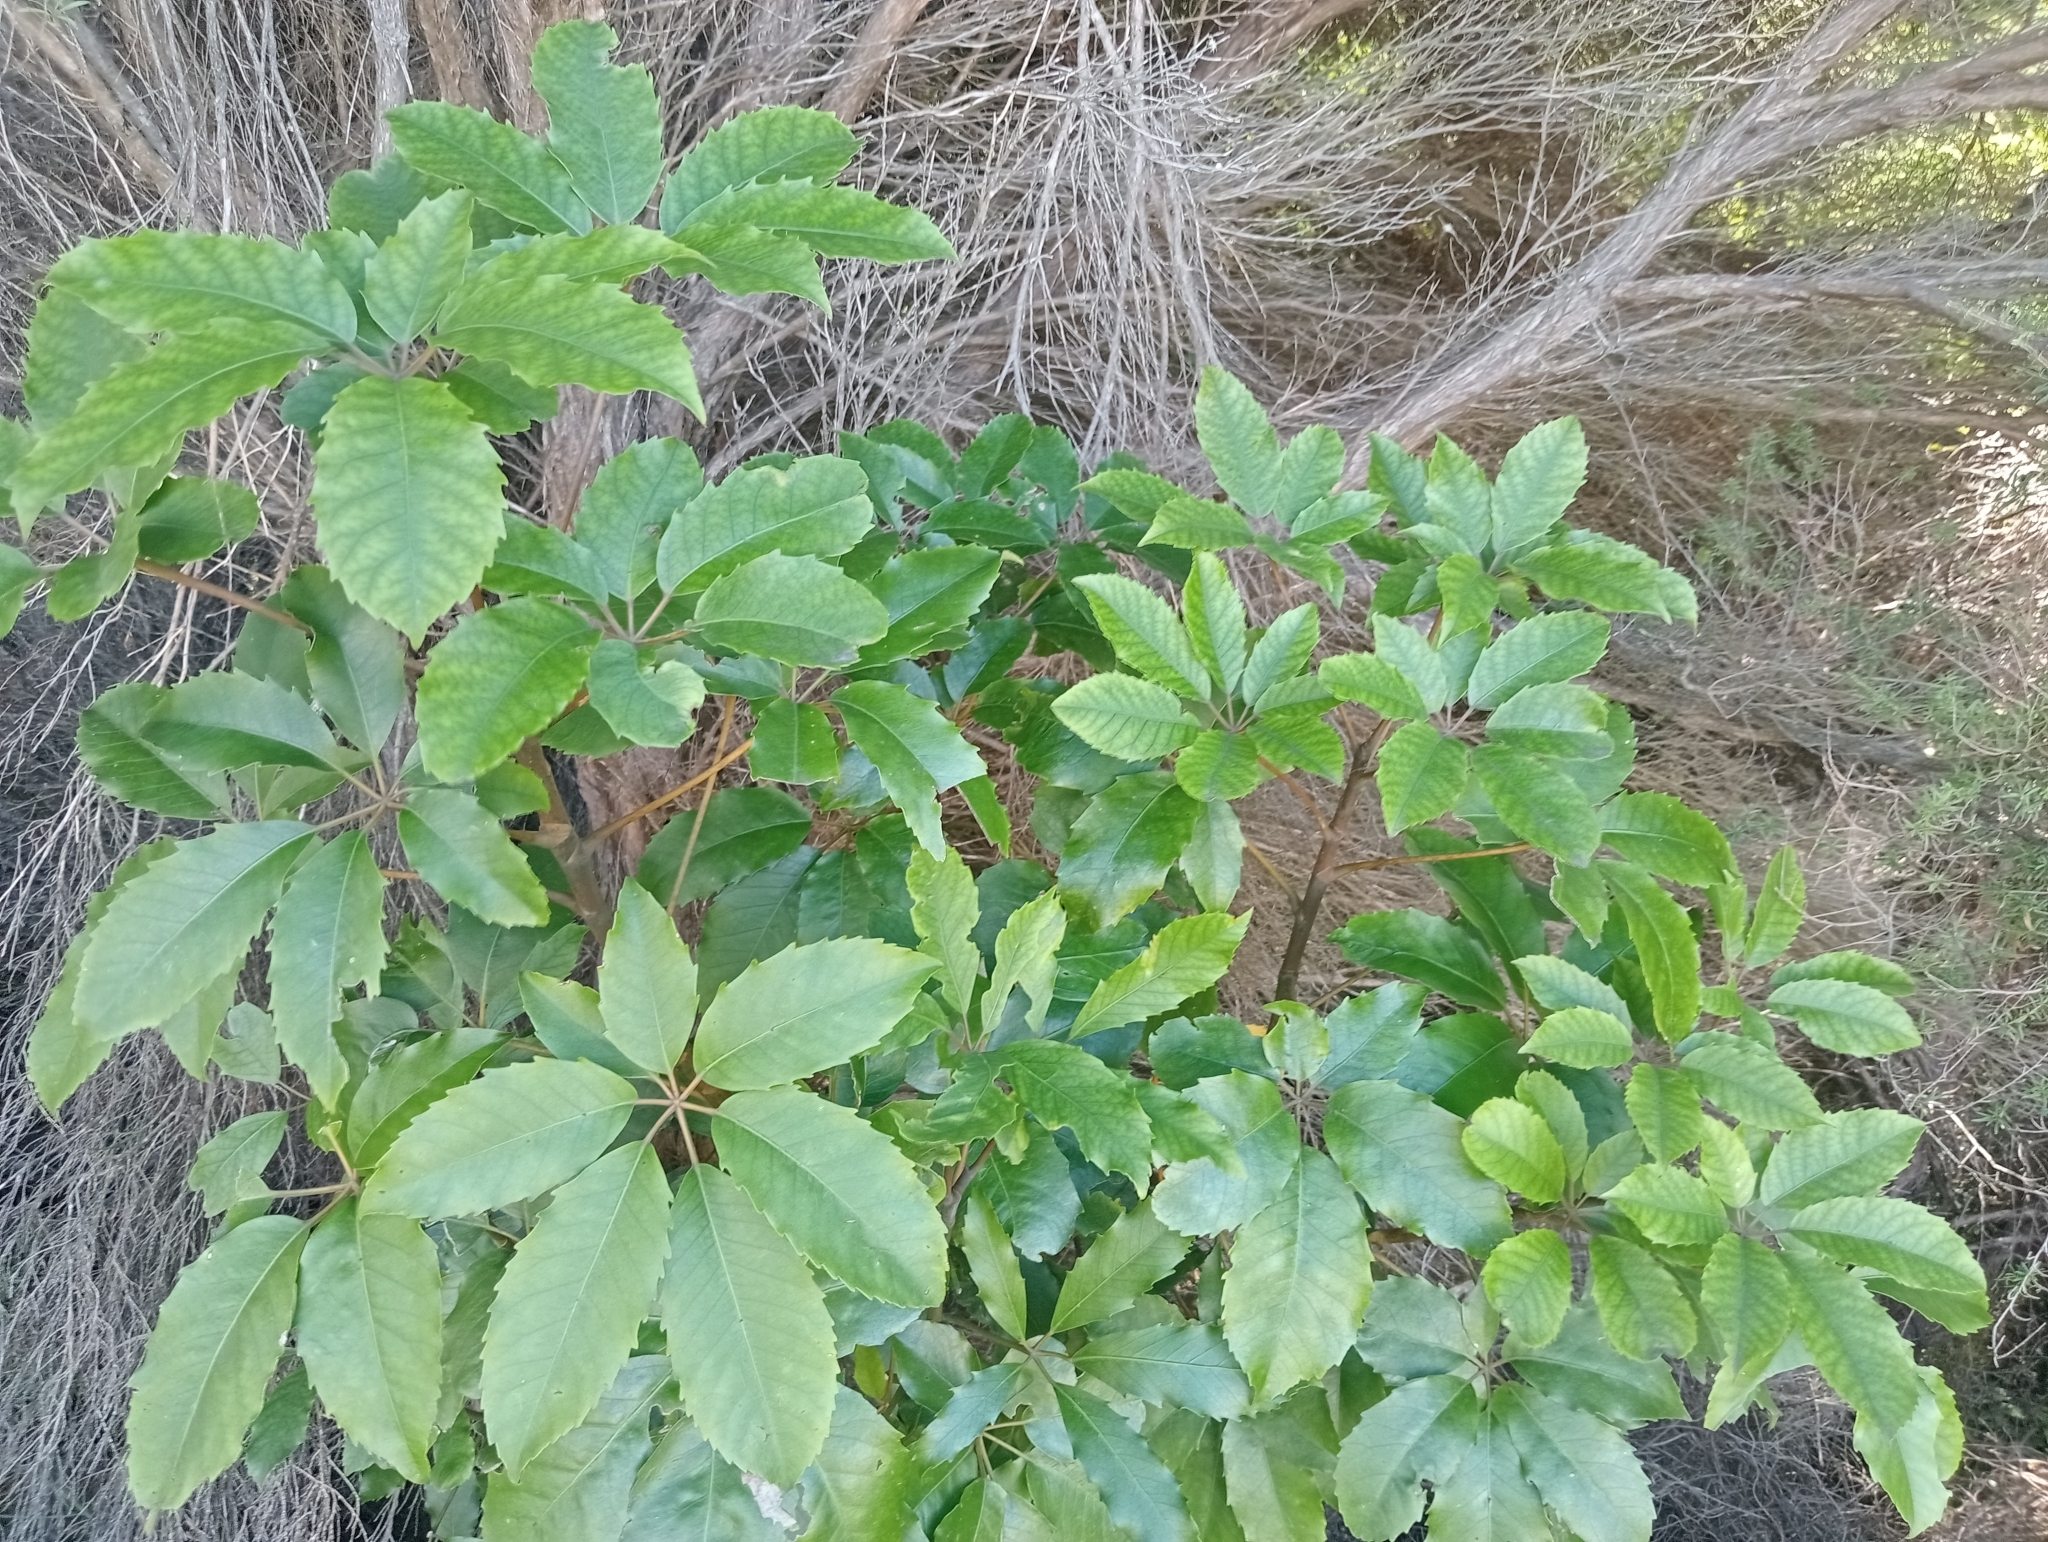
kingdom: Plantae
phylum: Tracheophyta
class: Magnoliopsida
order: Apiales
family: Araliaceae
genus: Neopanax
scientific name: Neopanax arboreus
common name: Five-fingers
